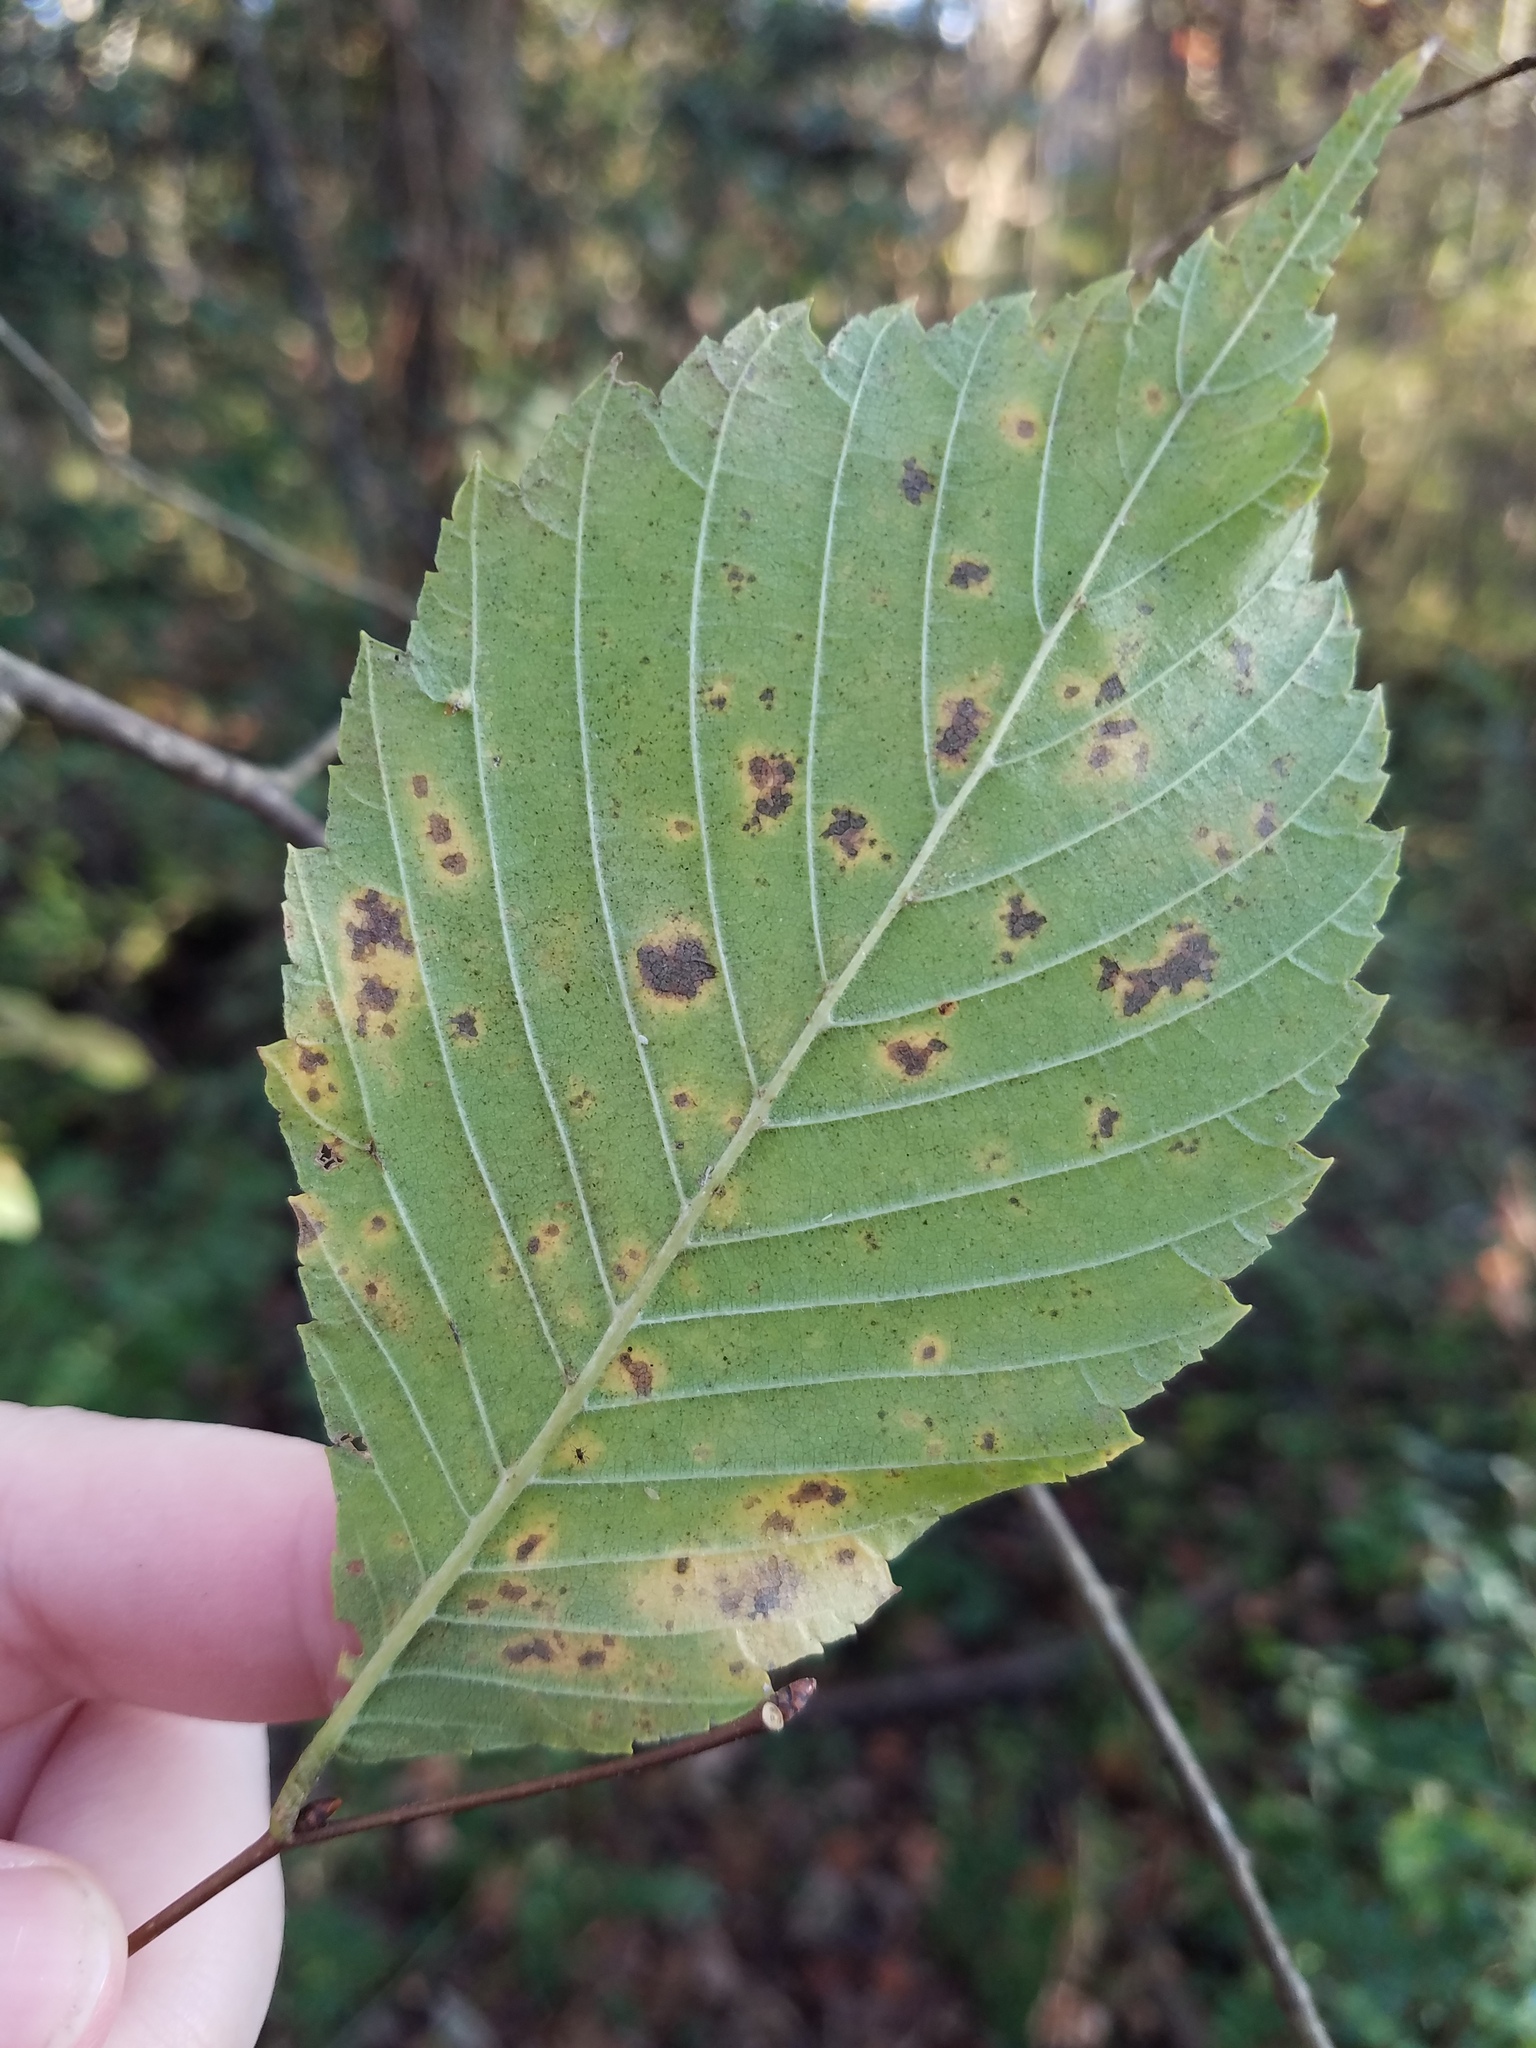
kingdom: Plantae
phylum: Tracheophyta
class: Magnoliopsida
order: Rosales
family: Ulmaceae
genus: Ulmus
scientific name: Ulmus americana
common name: American elm
